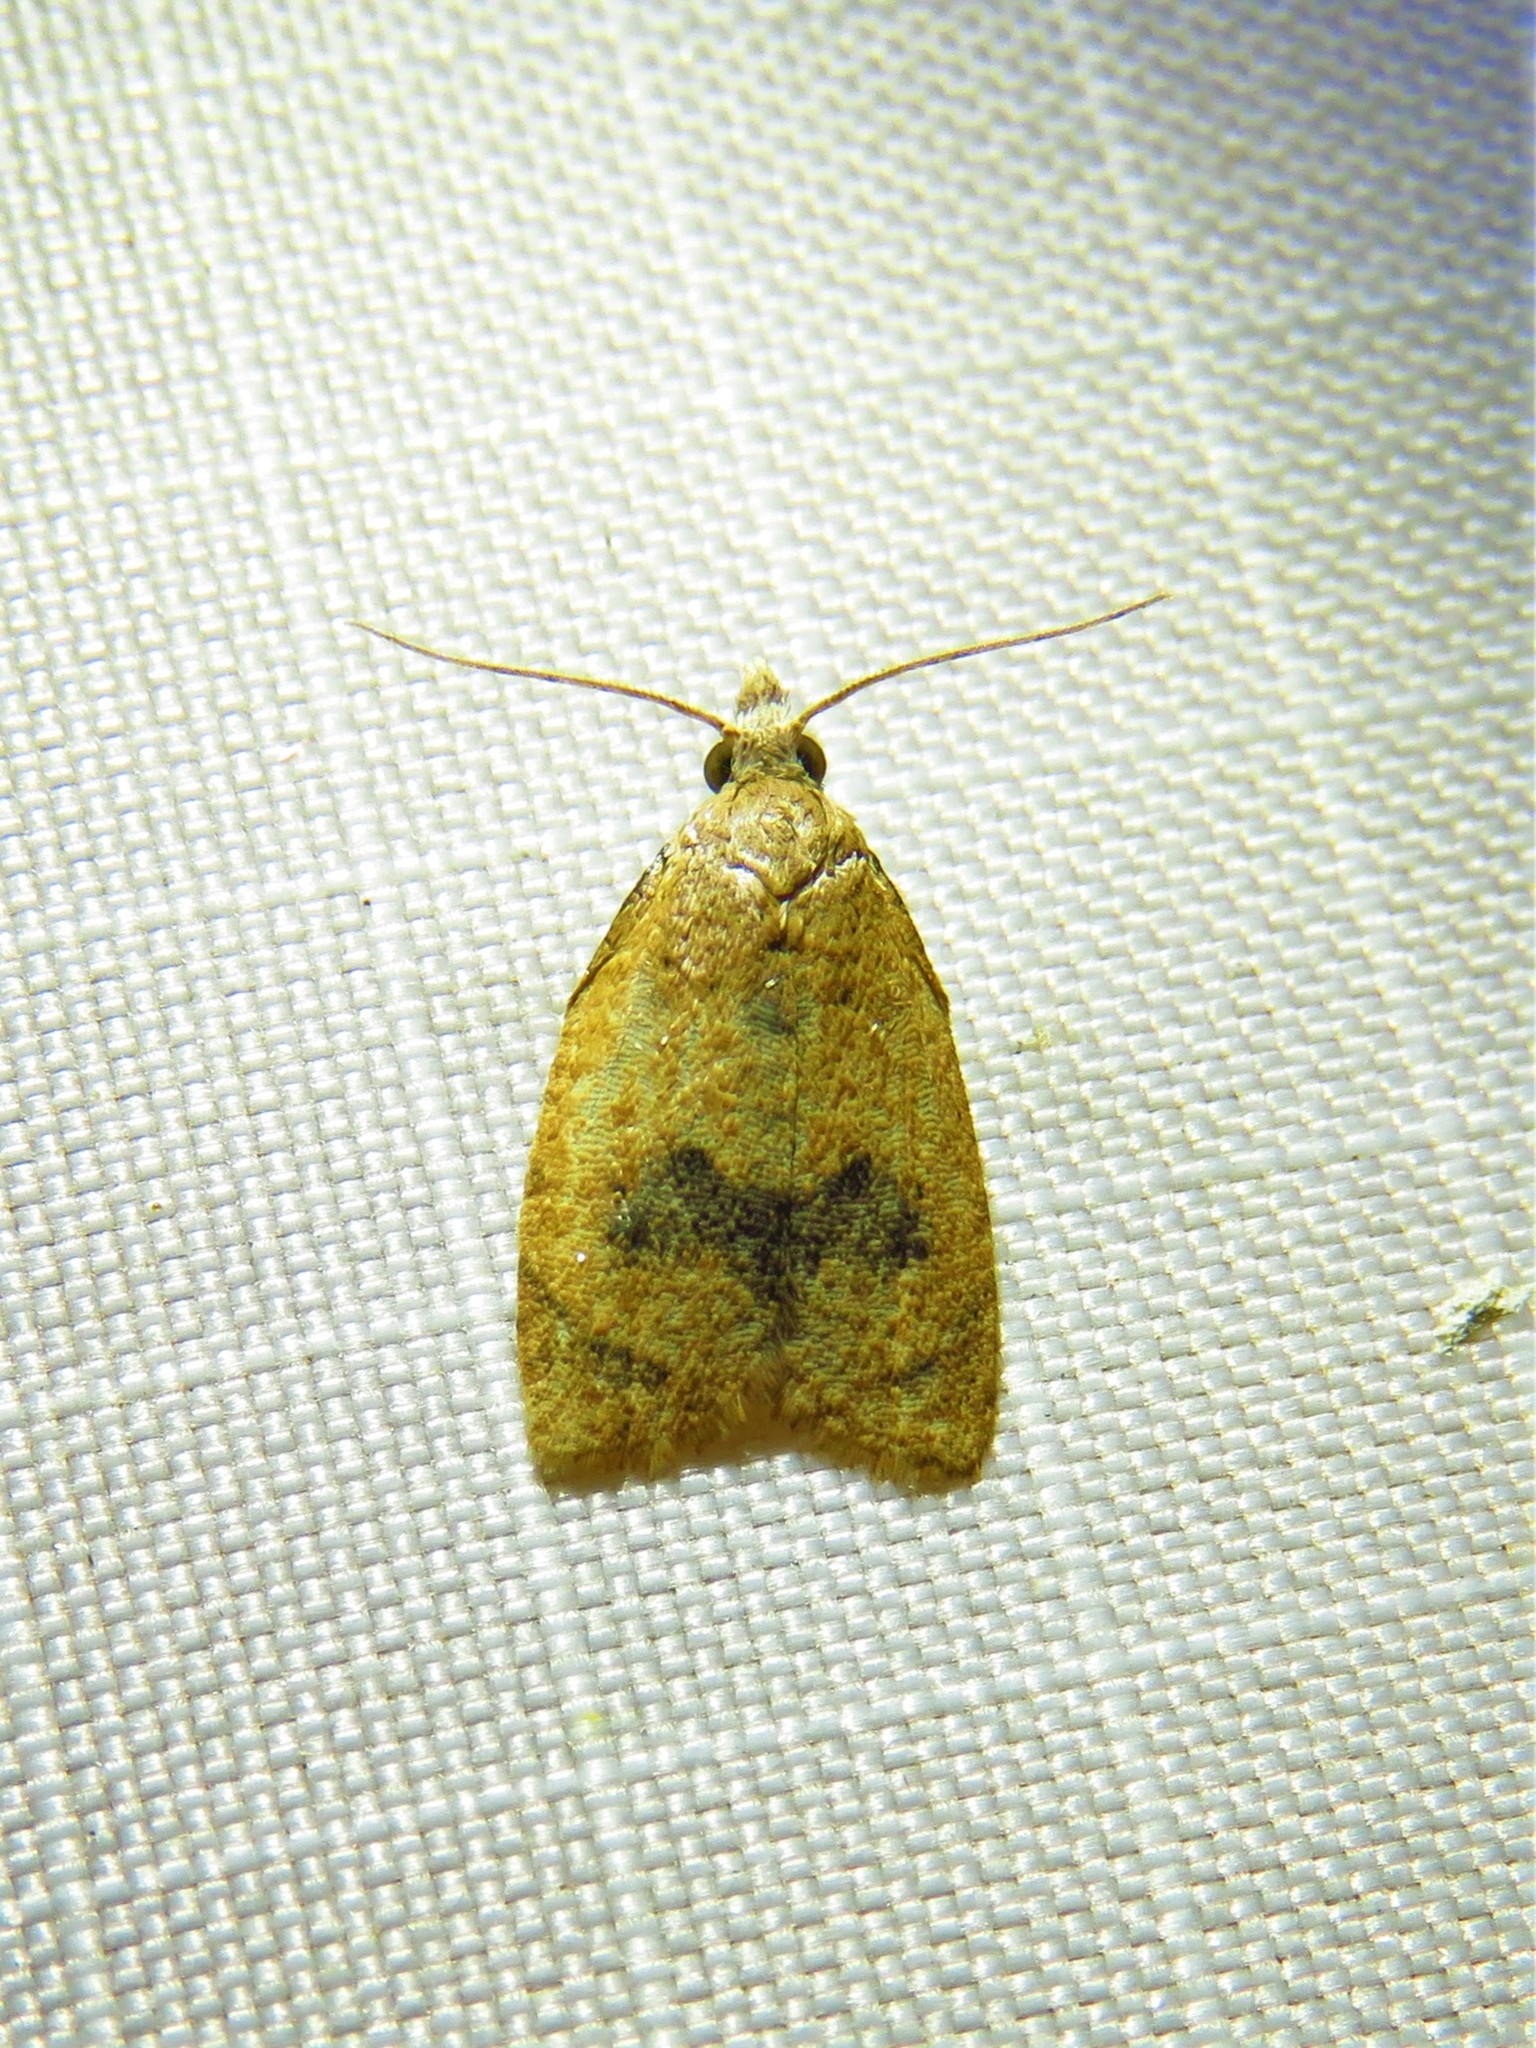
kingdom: Animalia
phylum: Arthropoda
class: Insecta
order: Lepidoptera
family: Tortricidae
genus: Sparganothoides
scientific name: Sparganothoides lentiginosana
